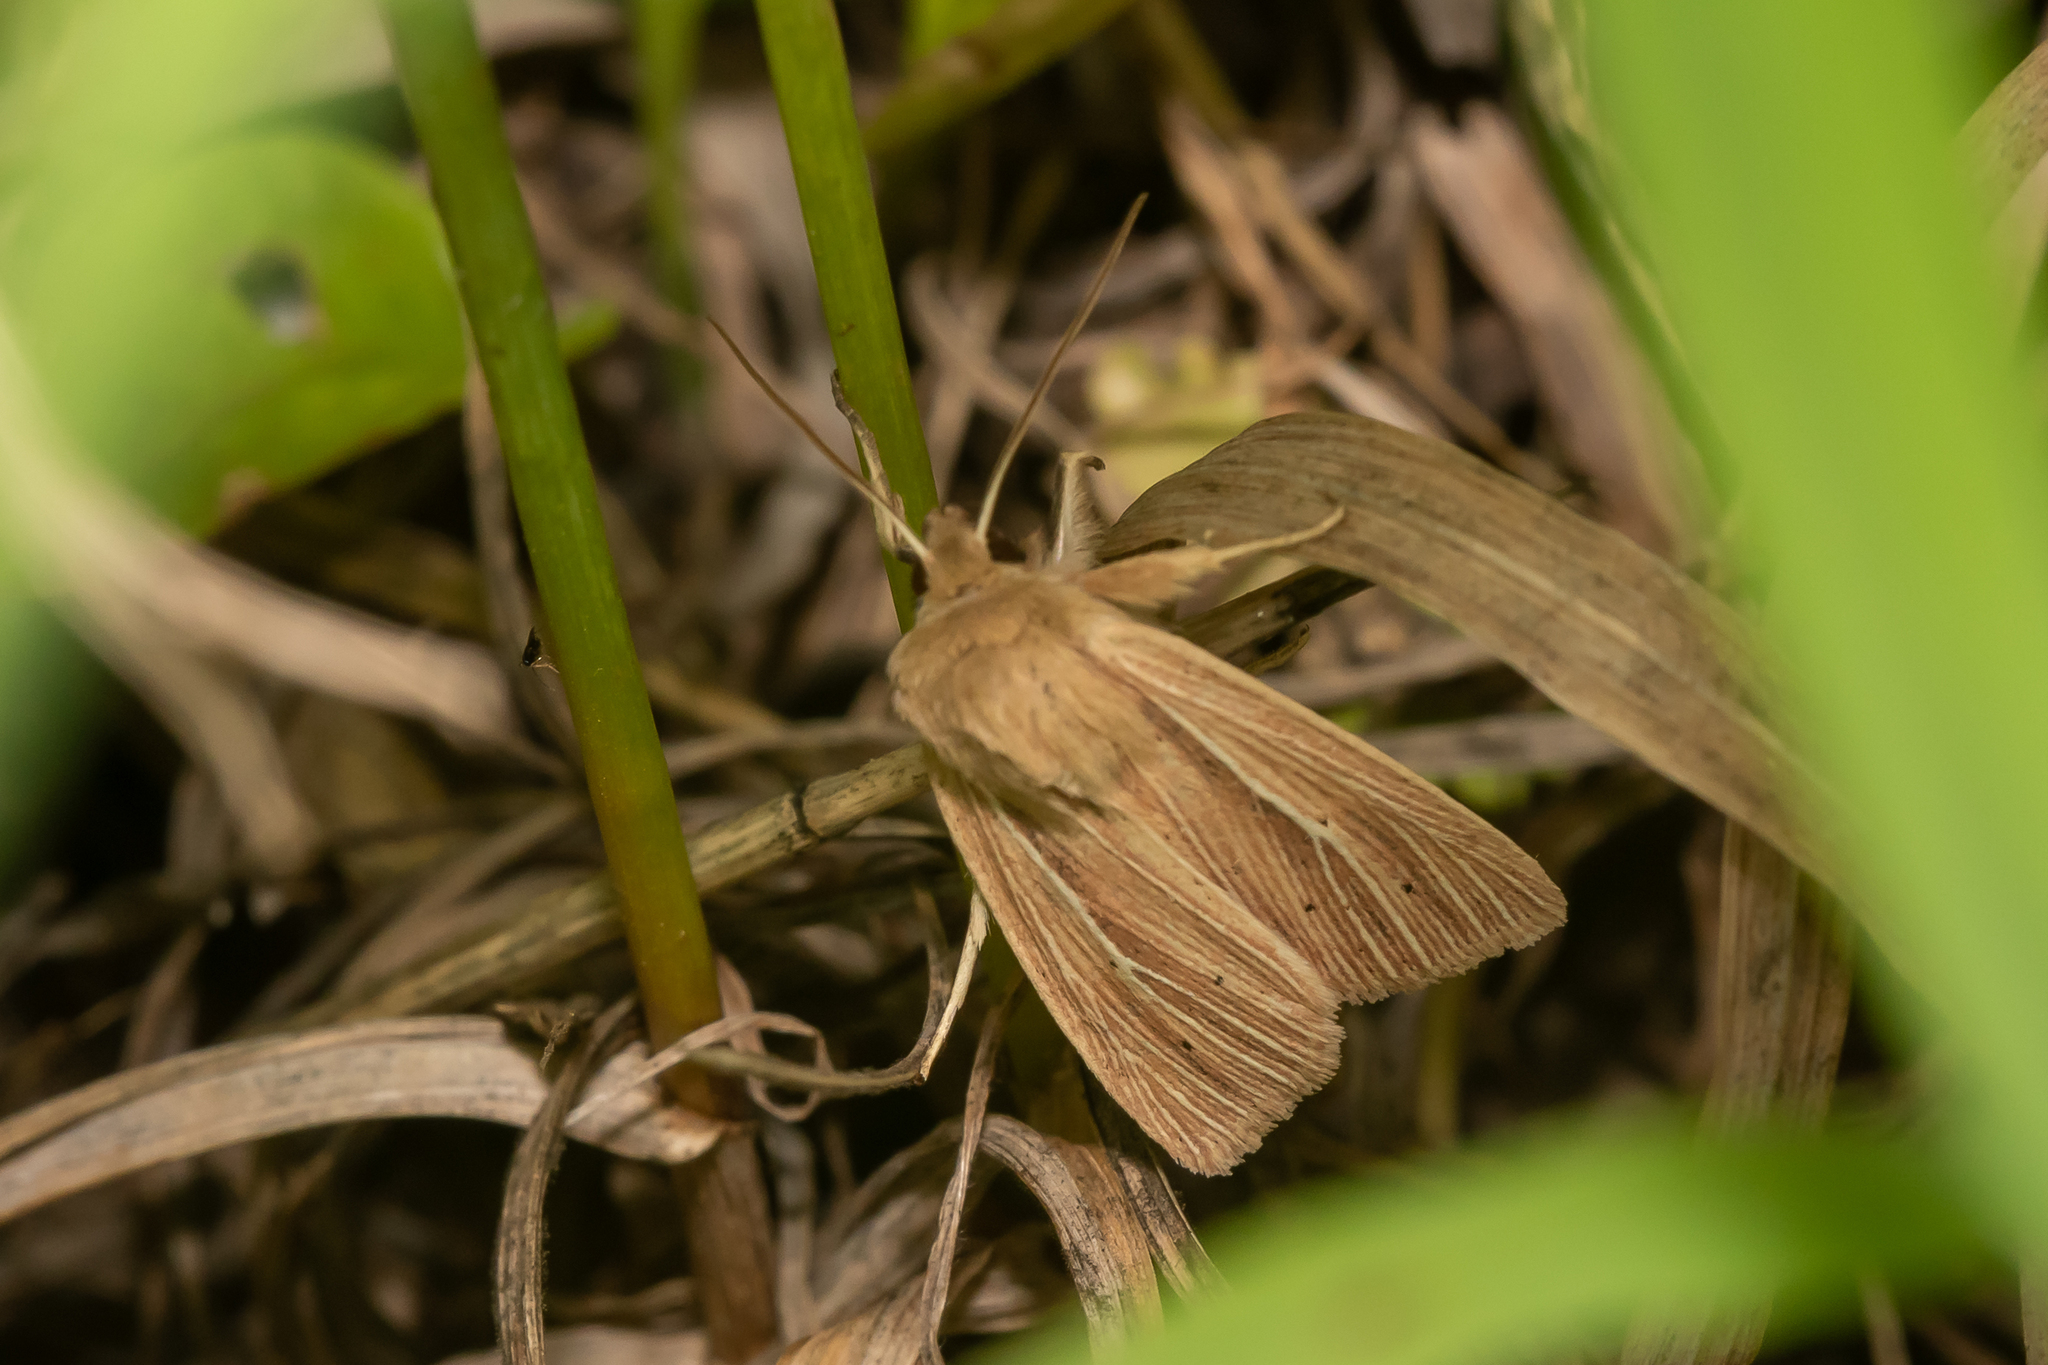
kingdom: Animalia
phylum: Arthropoda
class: Insecta
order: Lepidoptera
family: Noctuidae
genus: Mythimna
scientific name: Mythimna impura
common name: Smoky wainscot
